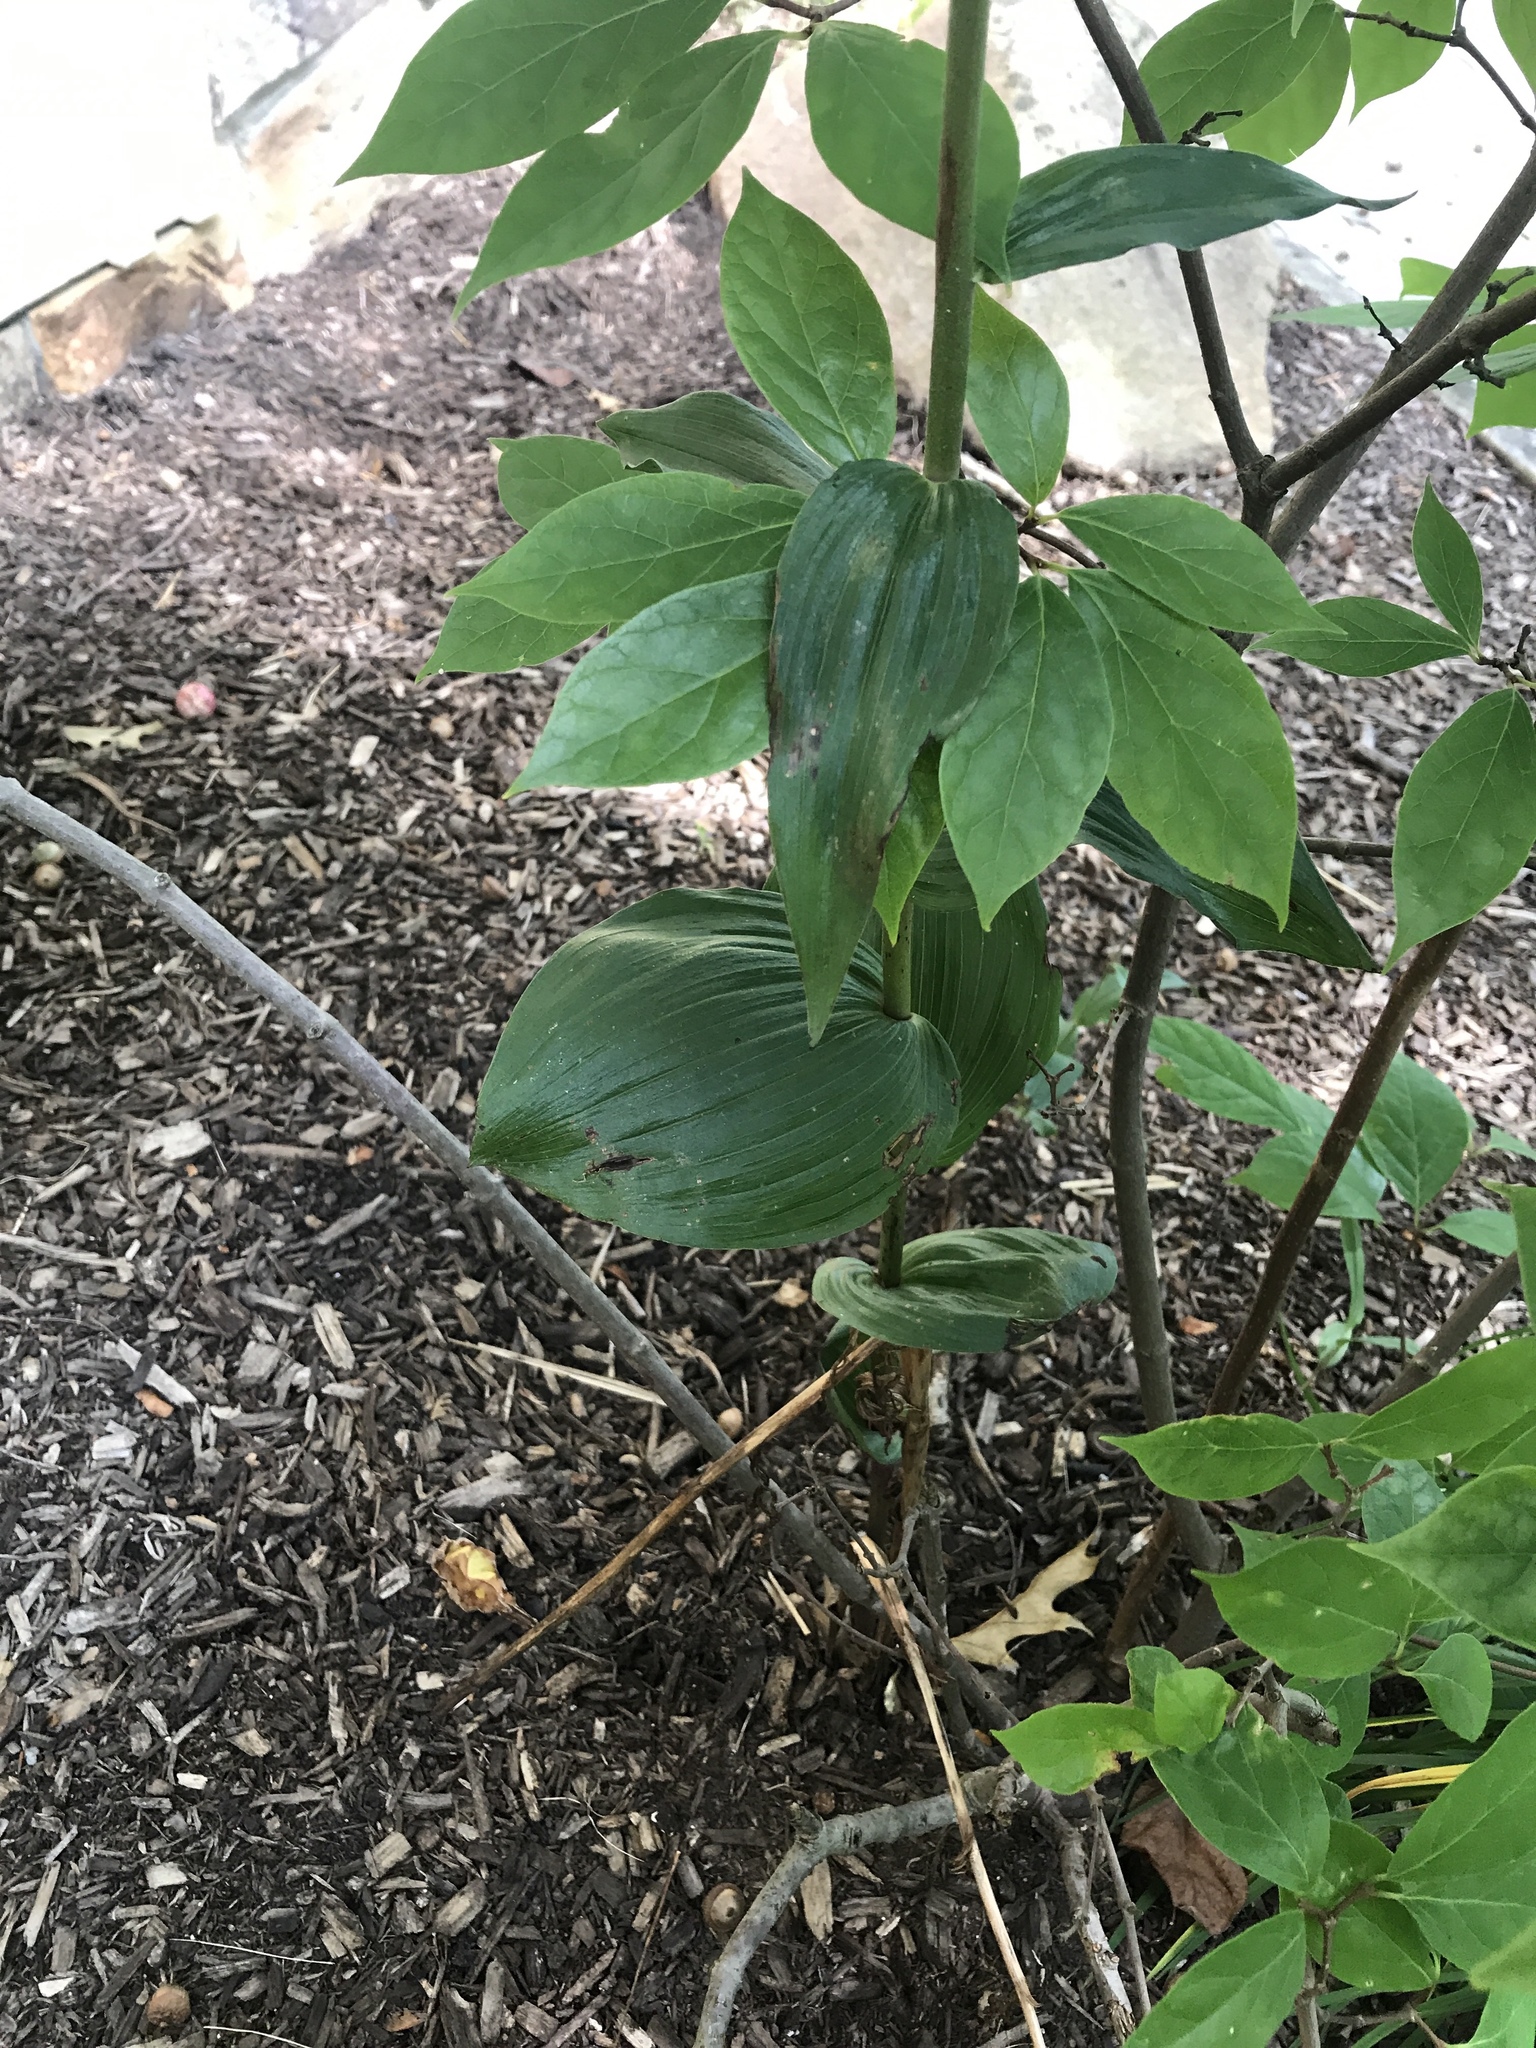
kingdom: Plantae
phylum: Tracheophyta
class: Liliopsida
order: Asparagales
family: Orchidaceae
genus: Epipactis
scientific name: Epipactis helleborine
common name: Broad-leaved helleborine
